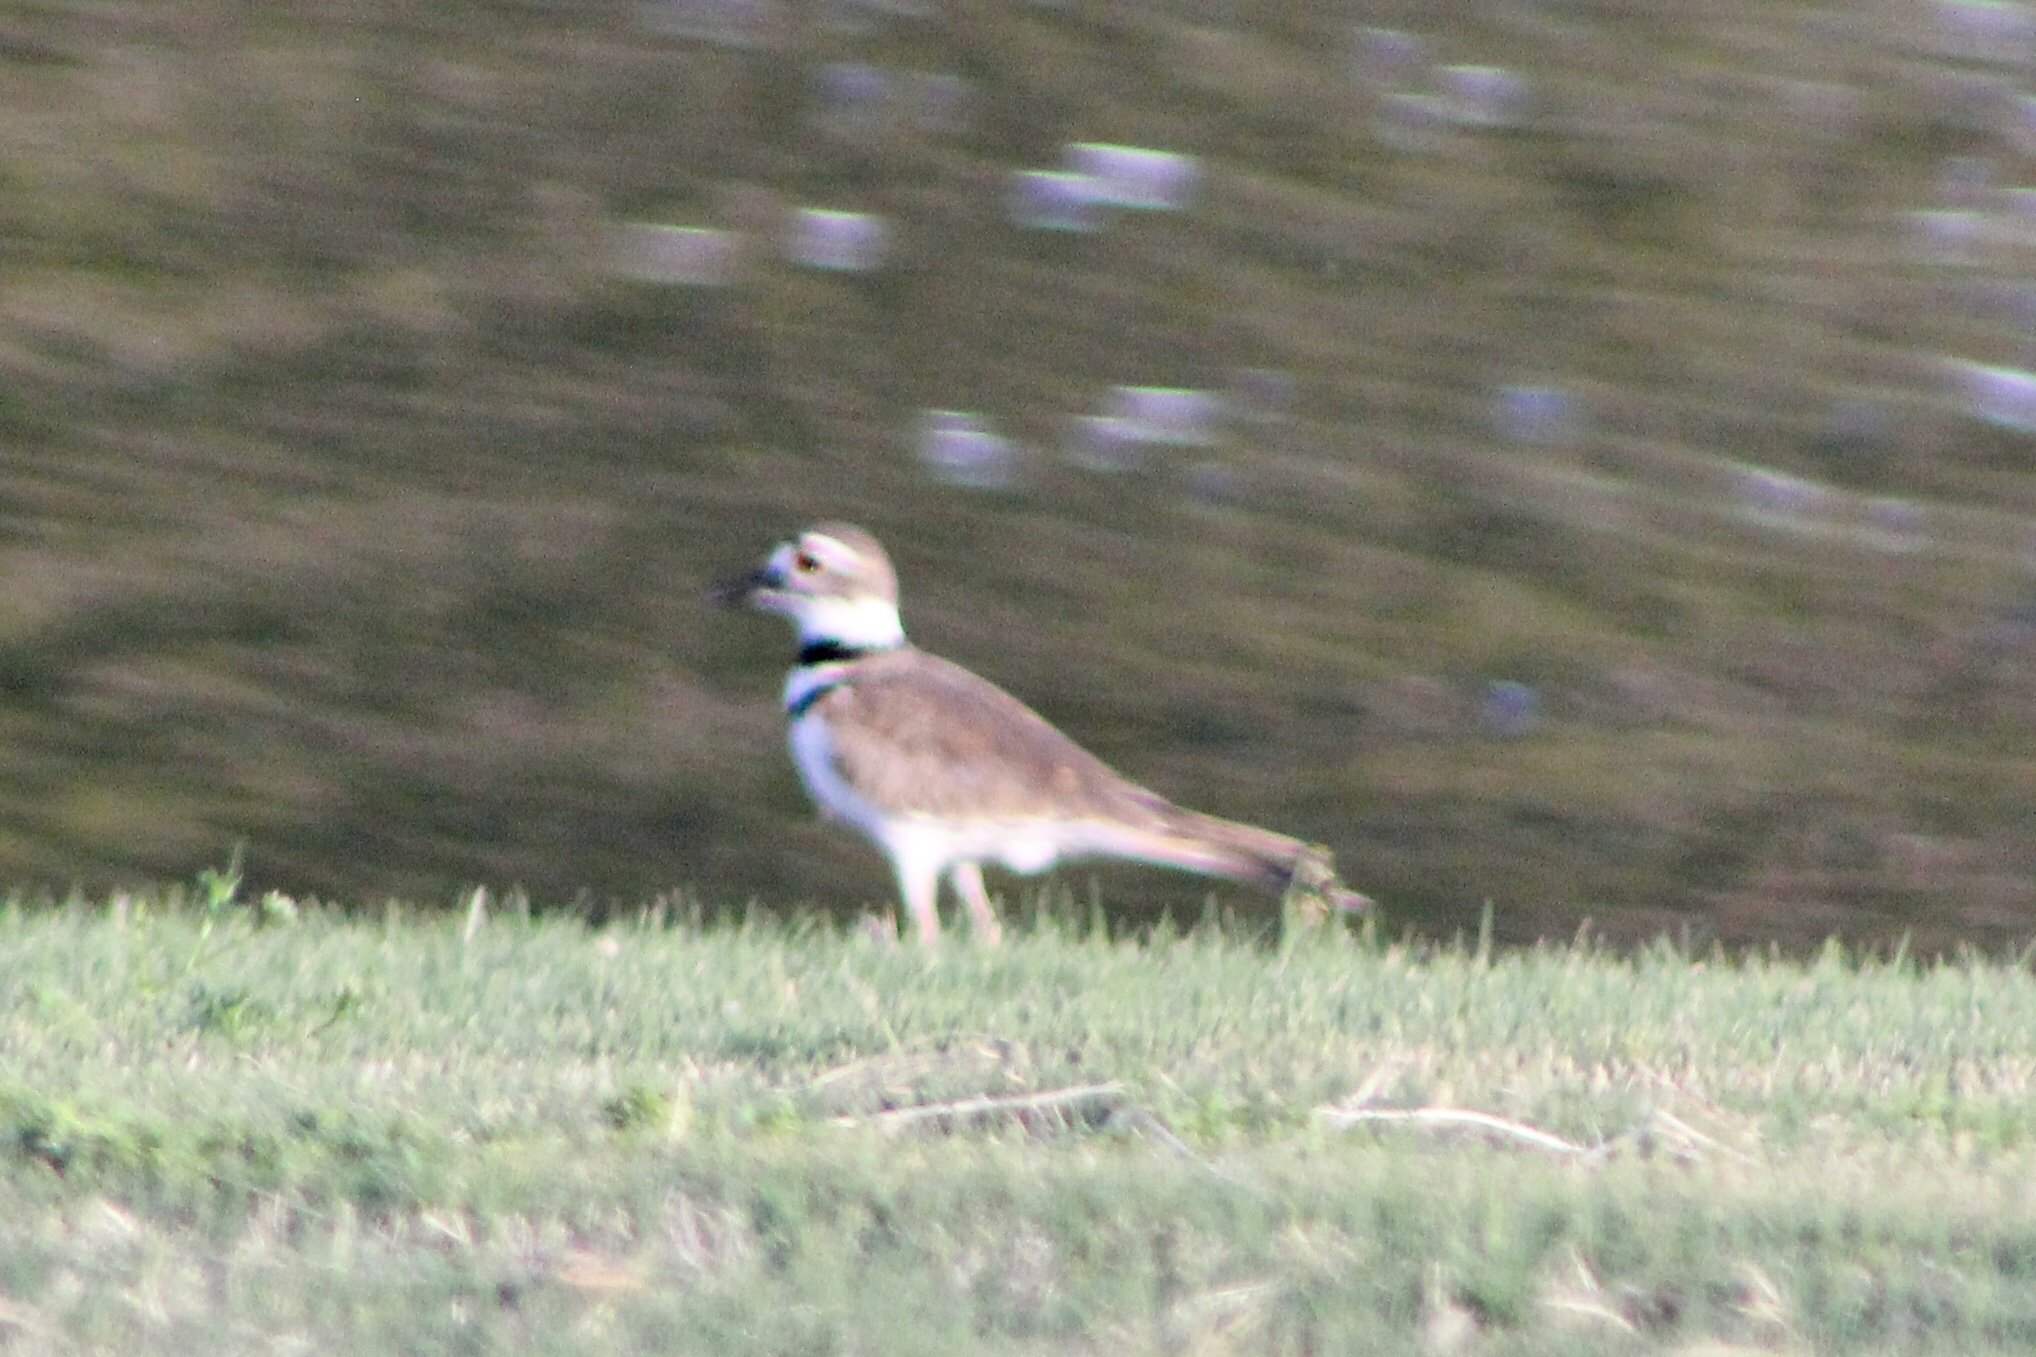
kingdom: Animalia
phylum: Chordata
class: Aves
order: Charadriiformes
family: Charadriidae
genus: Charadrius
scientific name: Charadrius vociferus
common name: Killdeer
